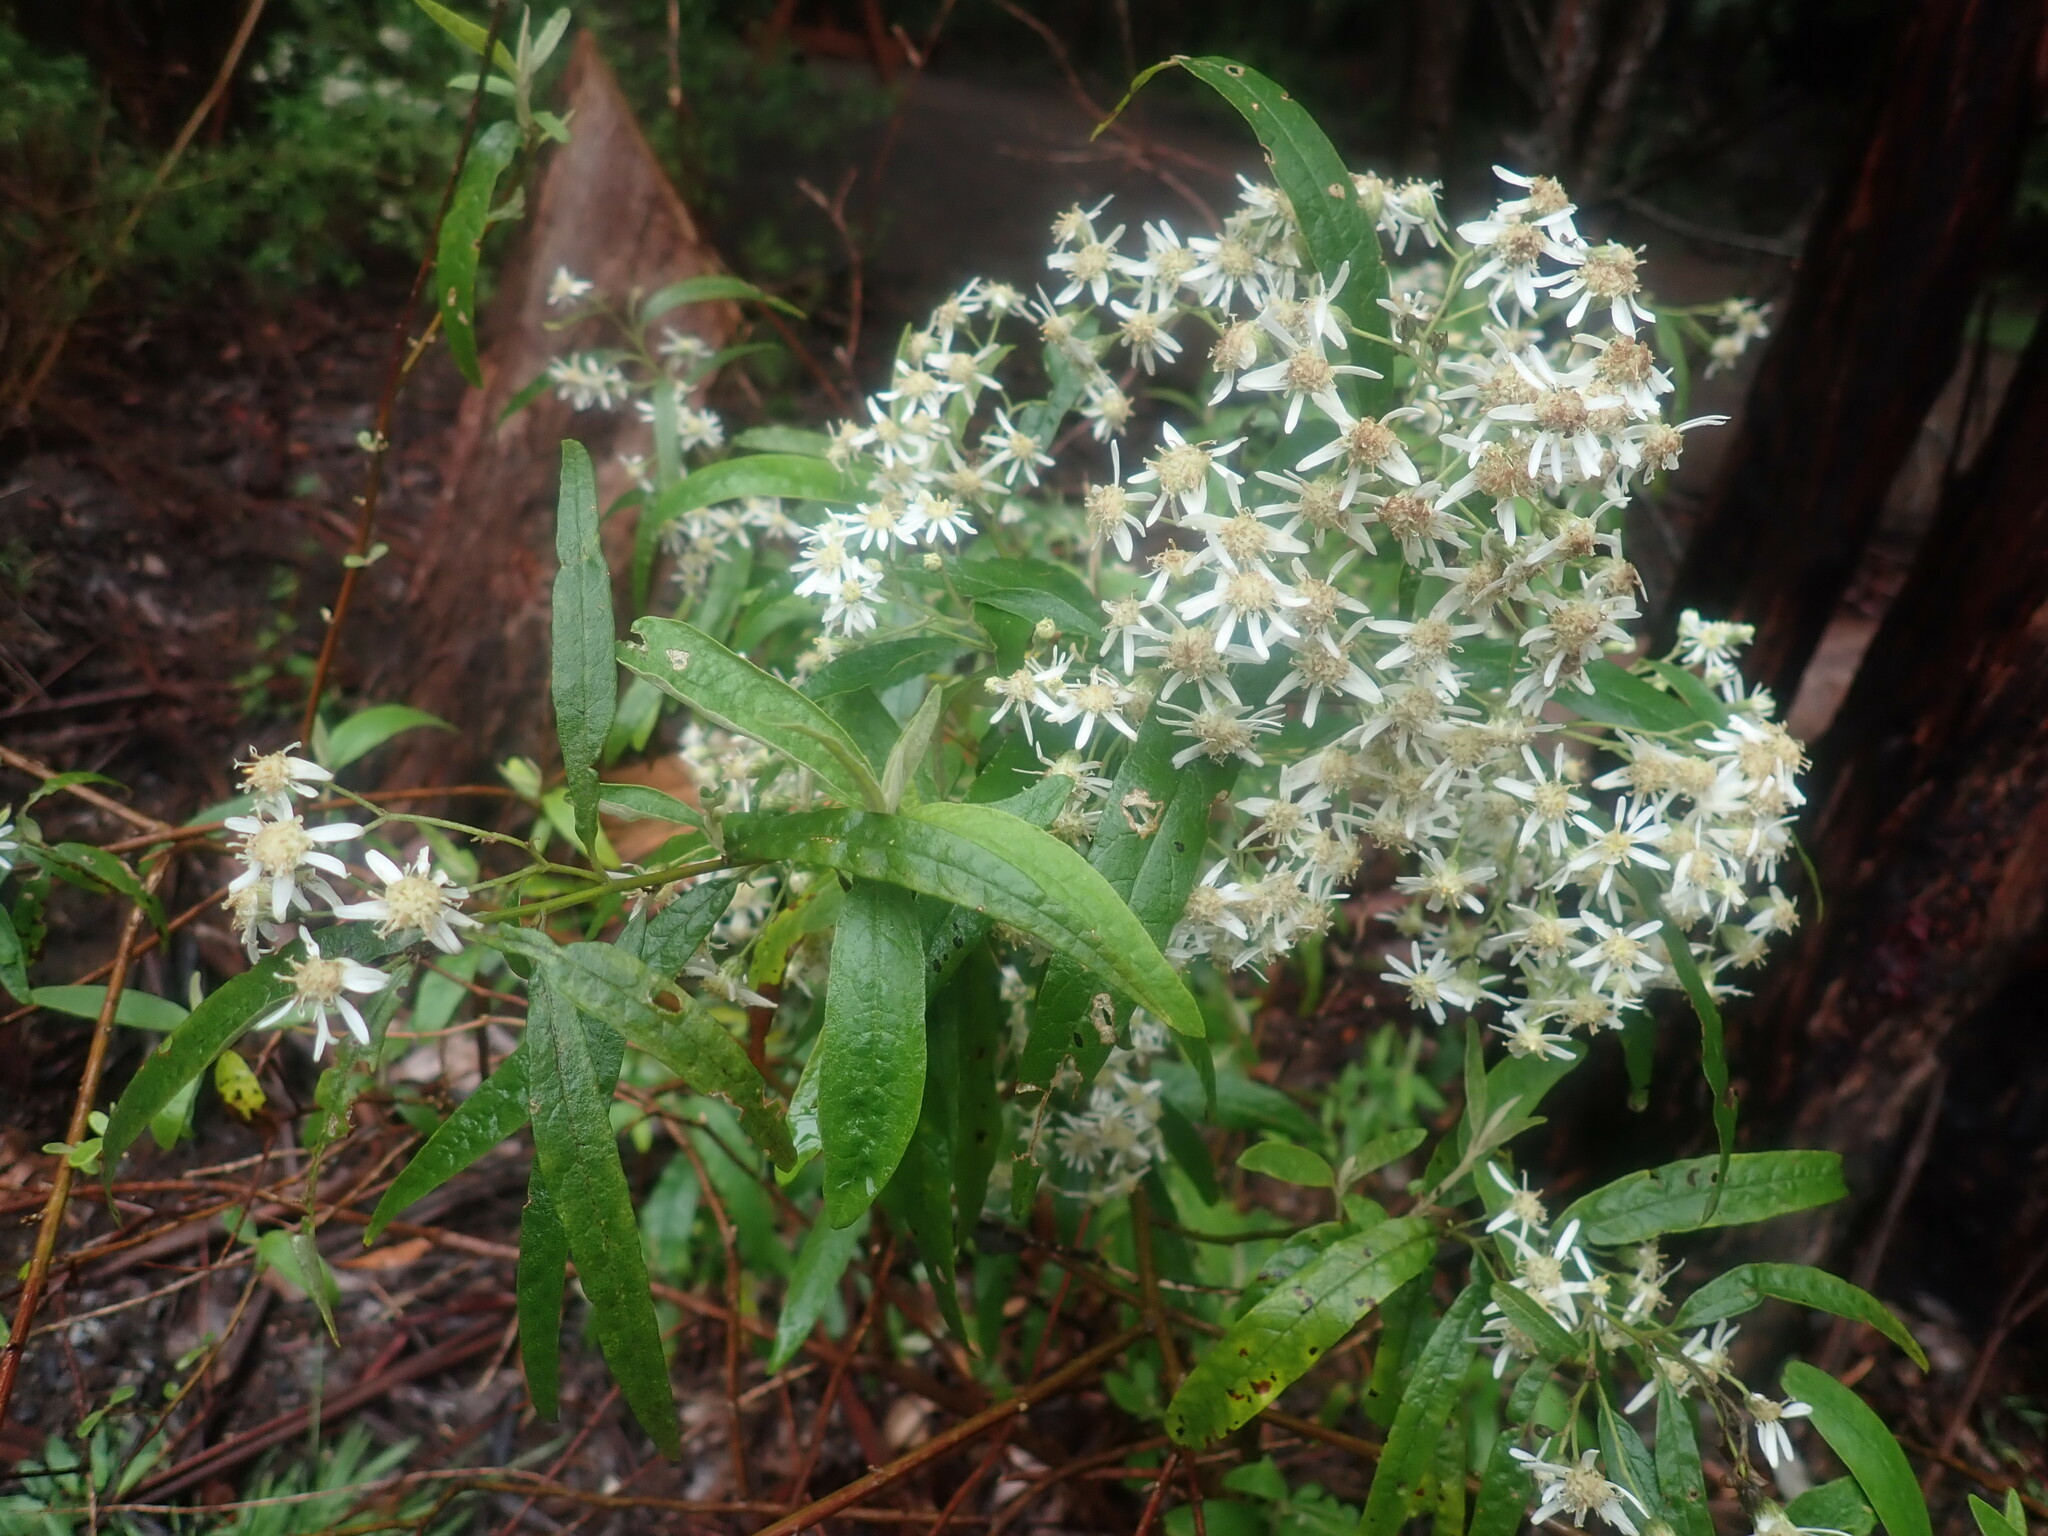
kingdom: Plantae
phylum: Tracheophyta
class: Magnoliopsida
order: Asterales
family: Asteraceae
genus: Olearia
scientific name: Olearia lirata
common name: Dusty daisybush
